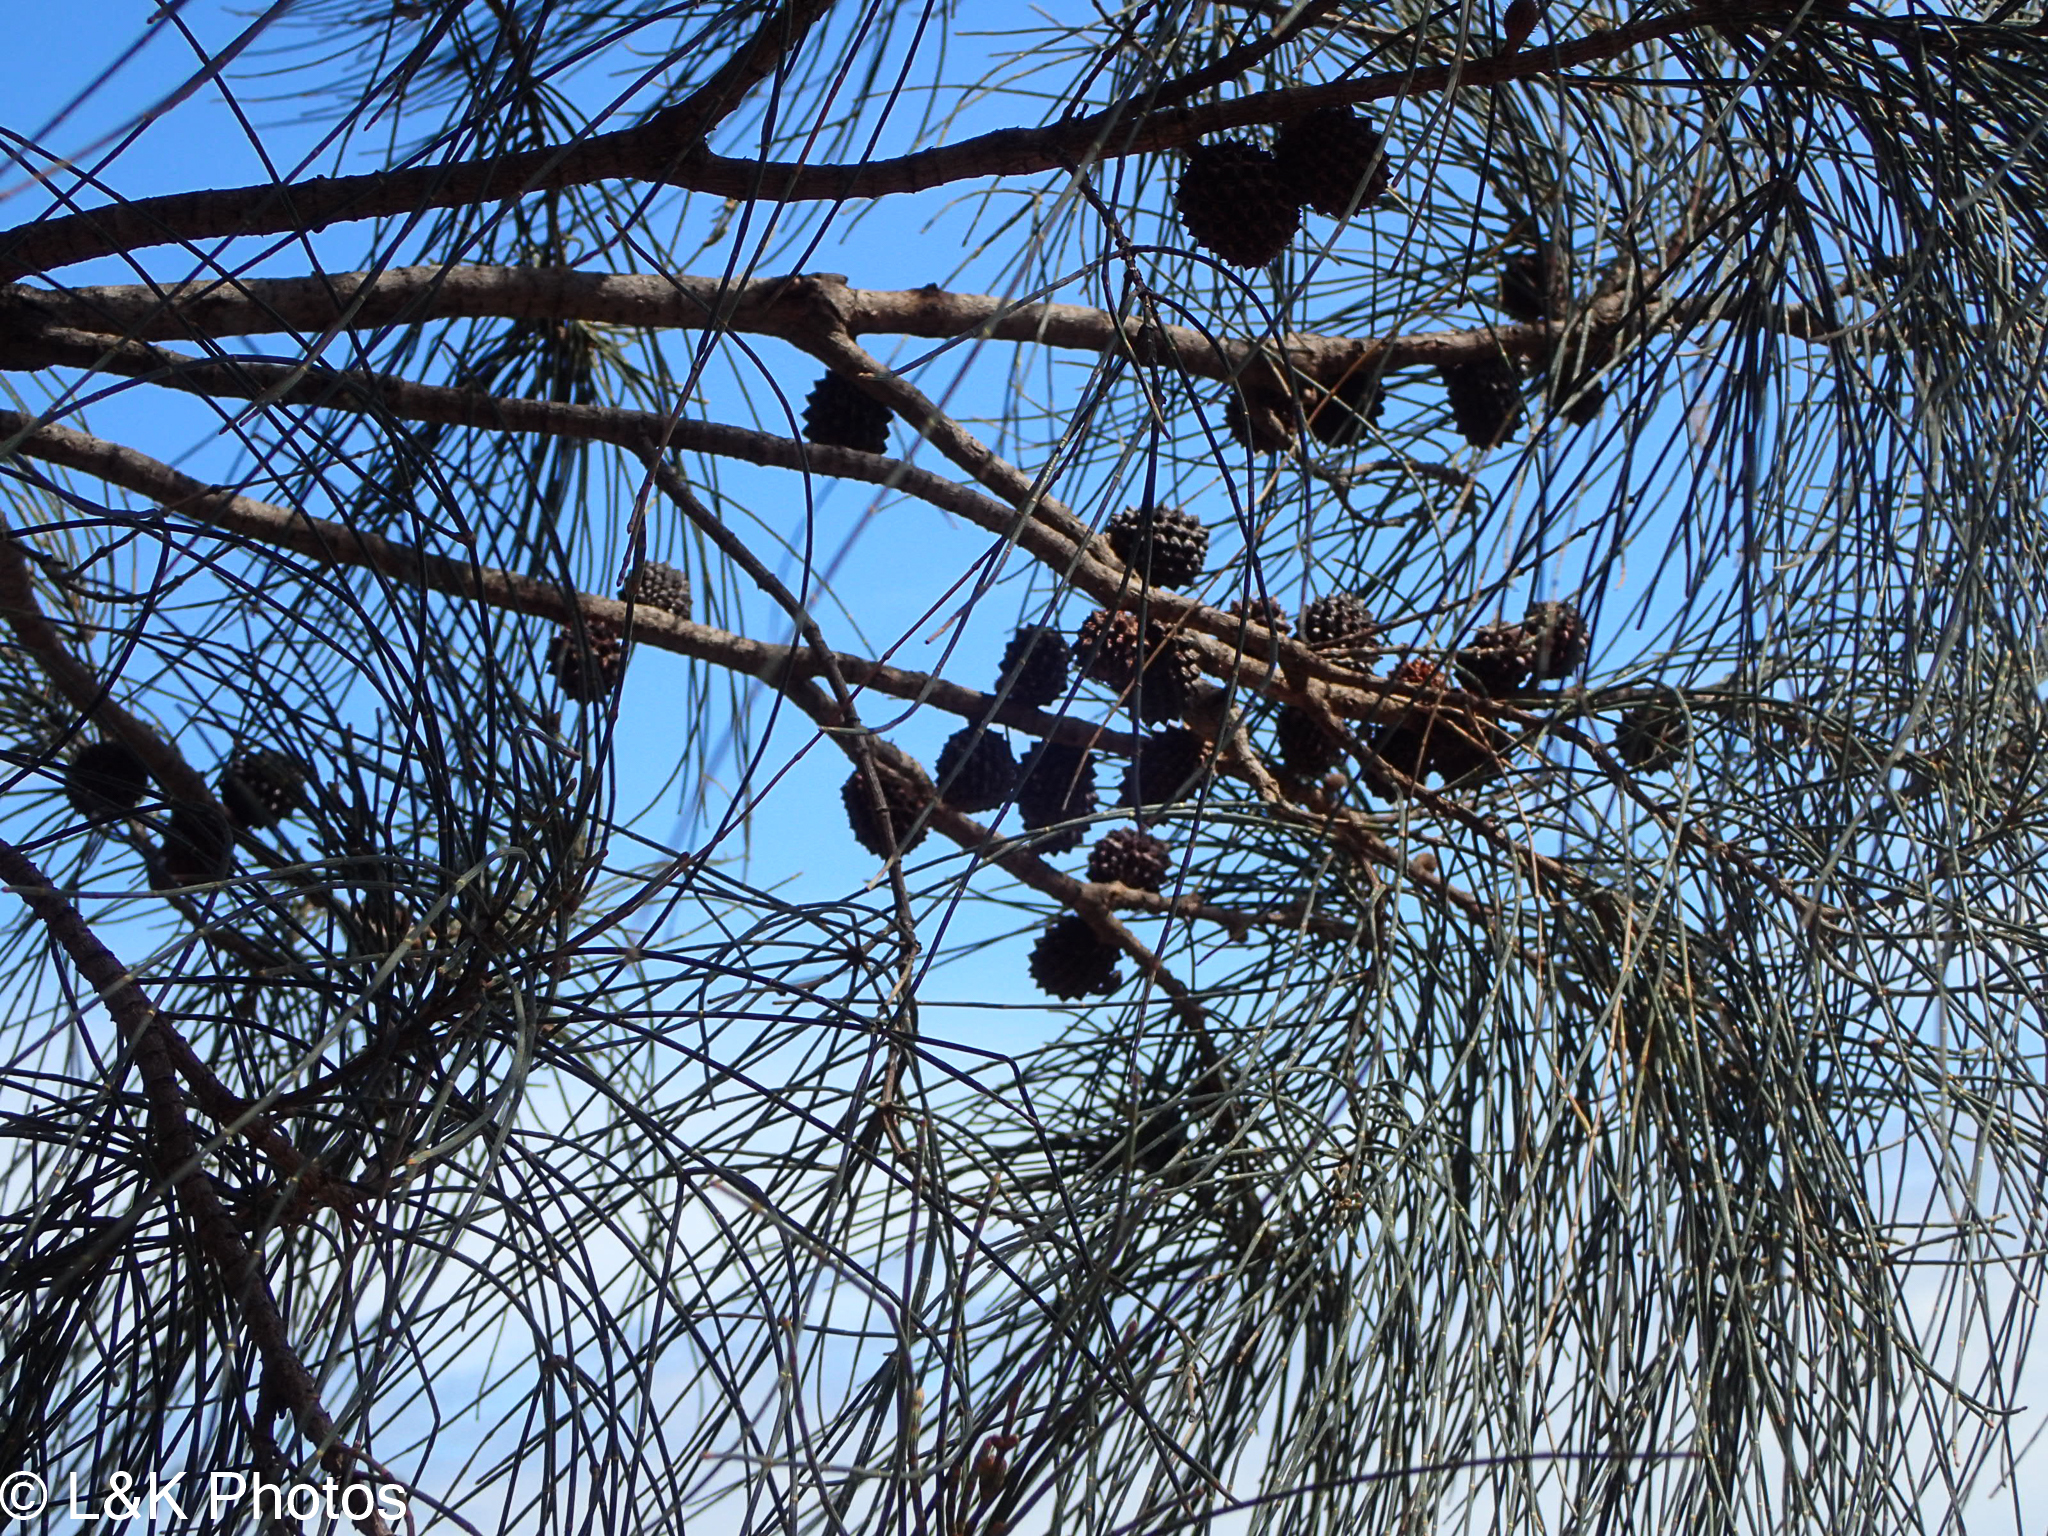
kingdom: Plantae
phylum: Tracheophyta
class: Magnoliopsida
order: Fagales
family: Casuarinaceae
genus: Allocasuarina
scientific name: Allocasuarina verticillata
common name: Drooping she-oak
